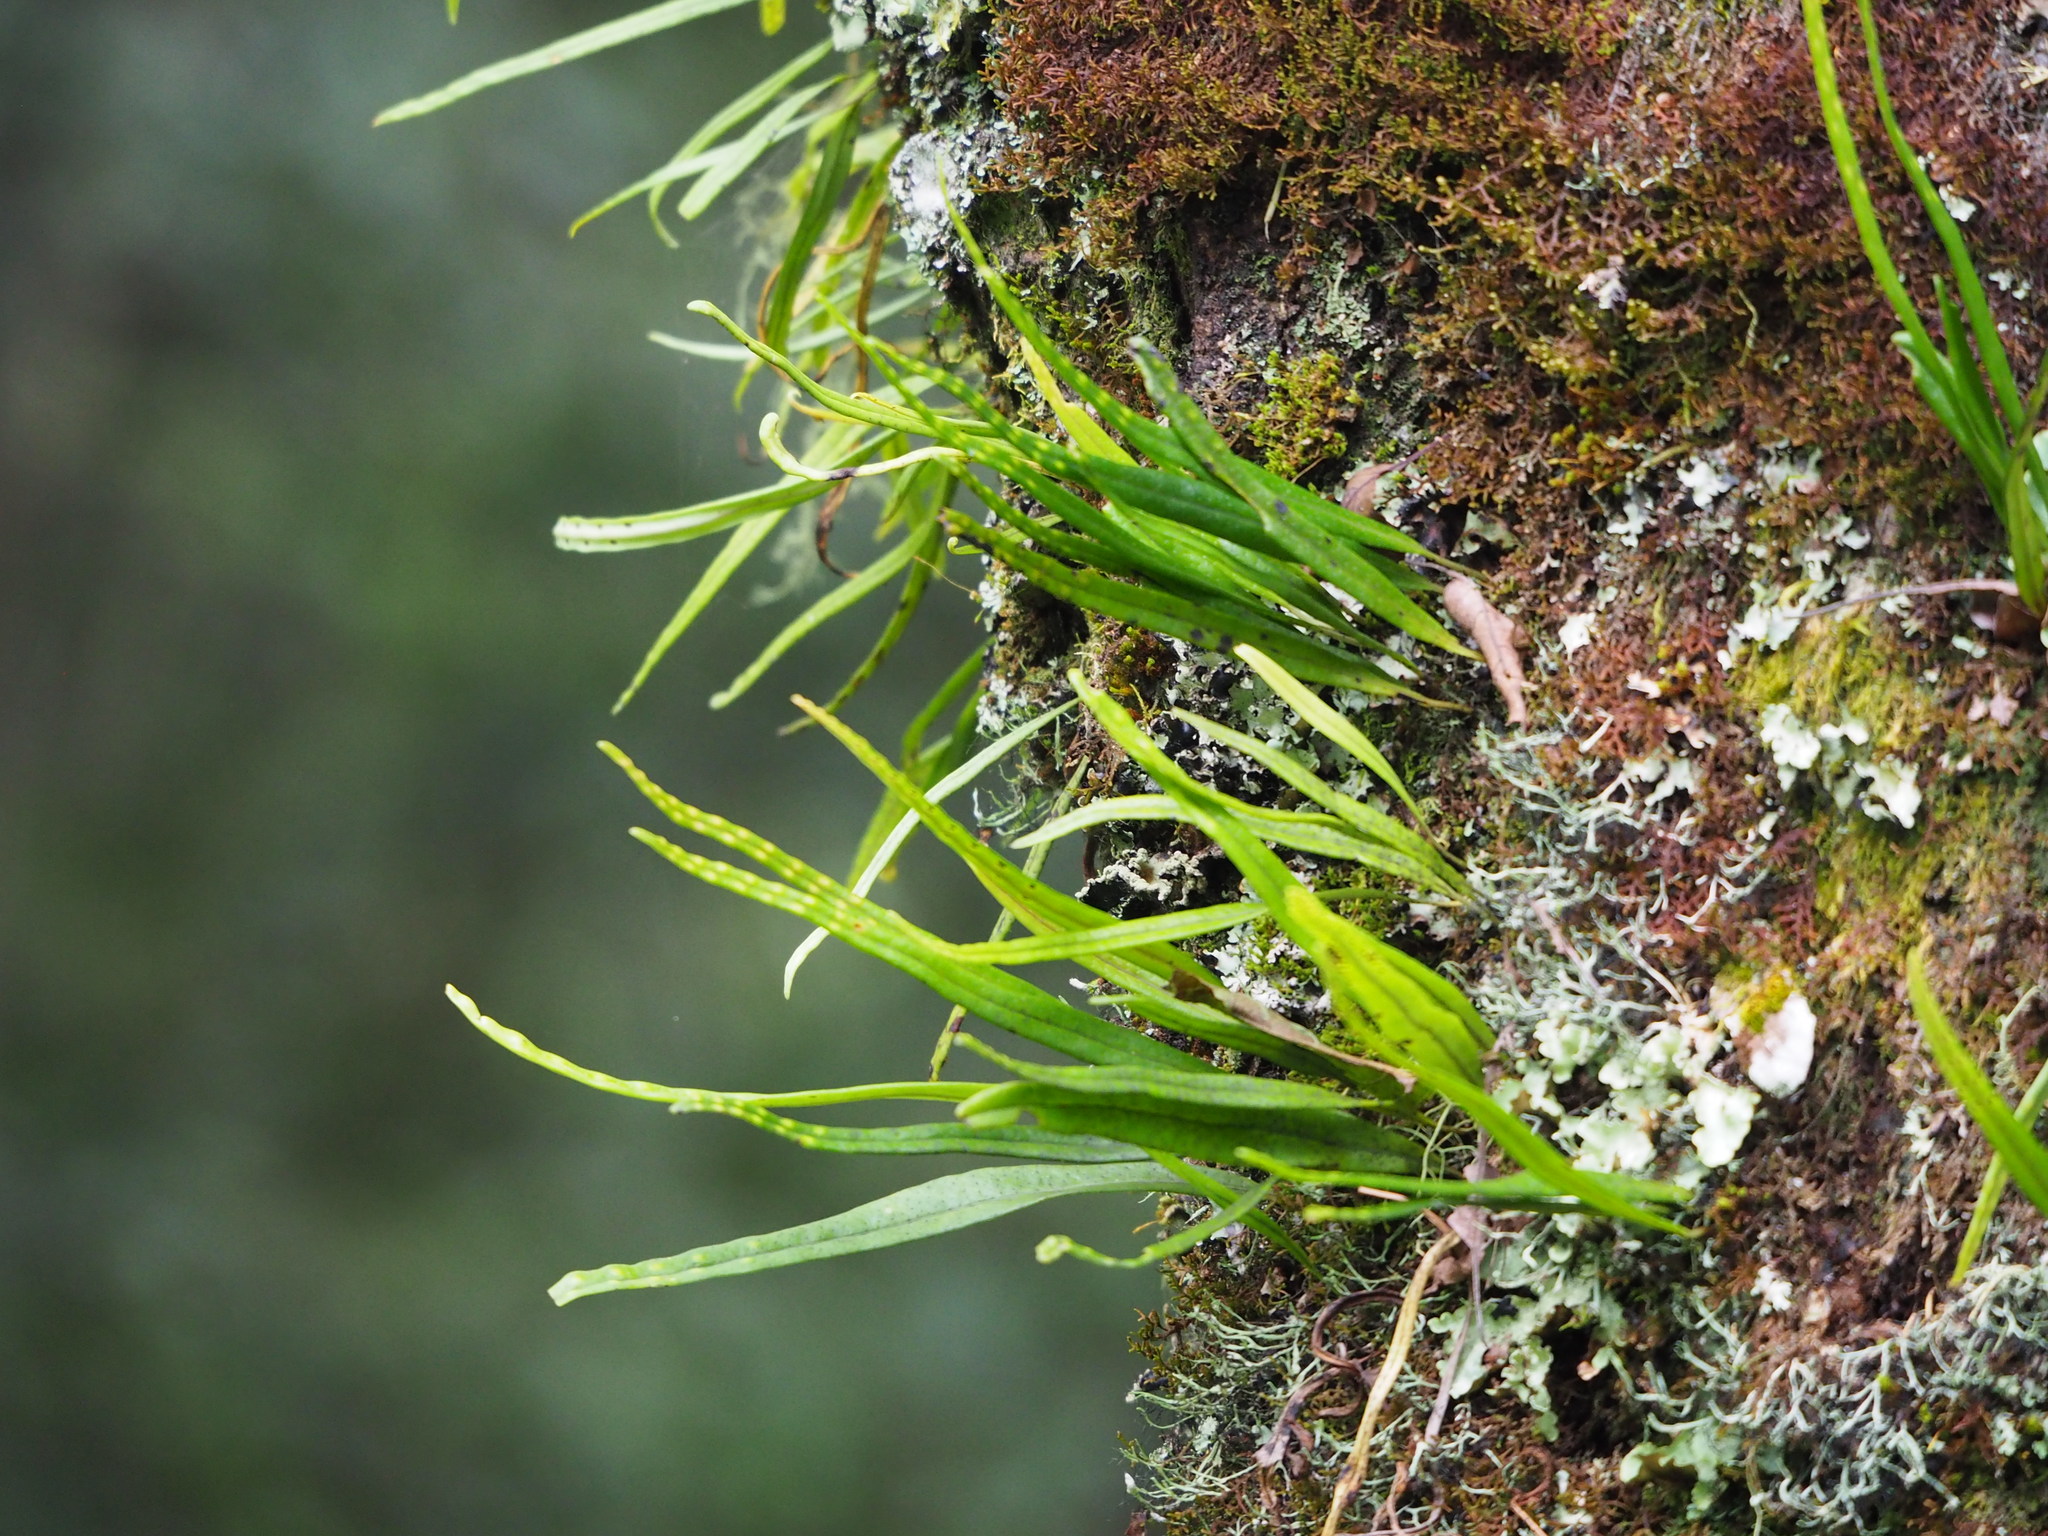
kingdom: Plantae
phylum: Tracheophyta
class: Polypodiopsida
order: Polypodiales
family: Polypodiaceae
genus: Lepisorus
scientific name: Lepisorus thunbergianus
